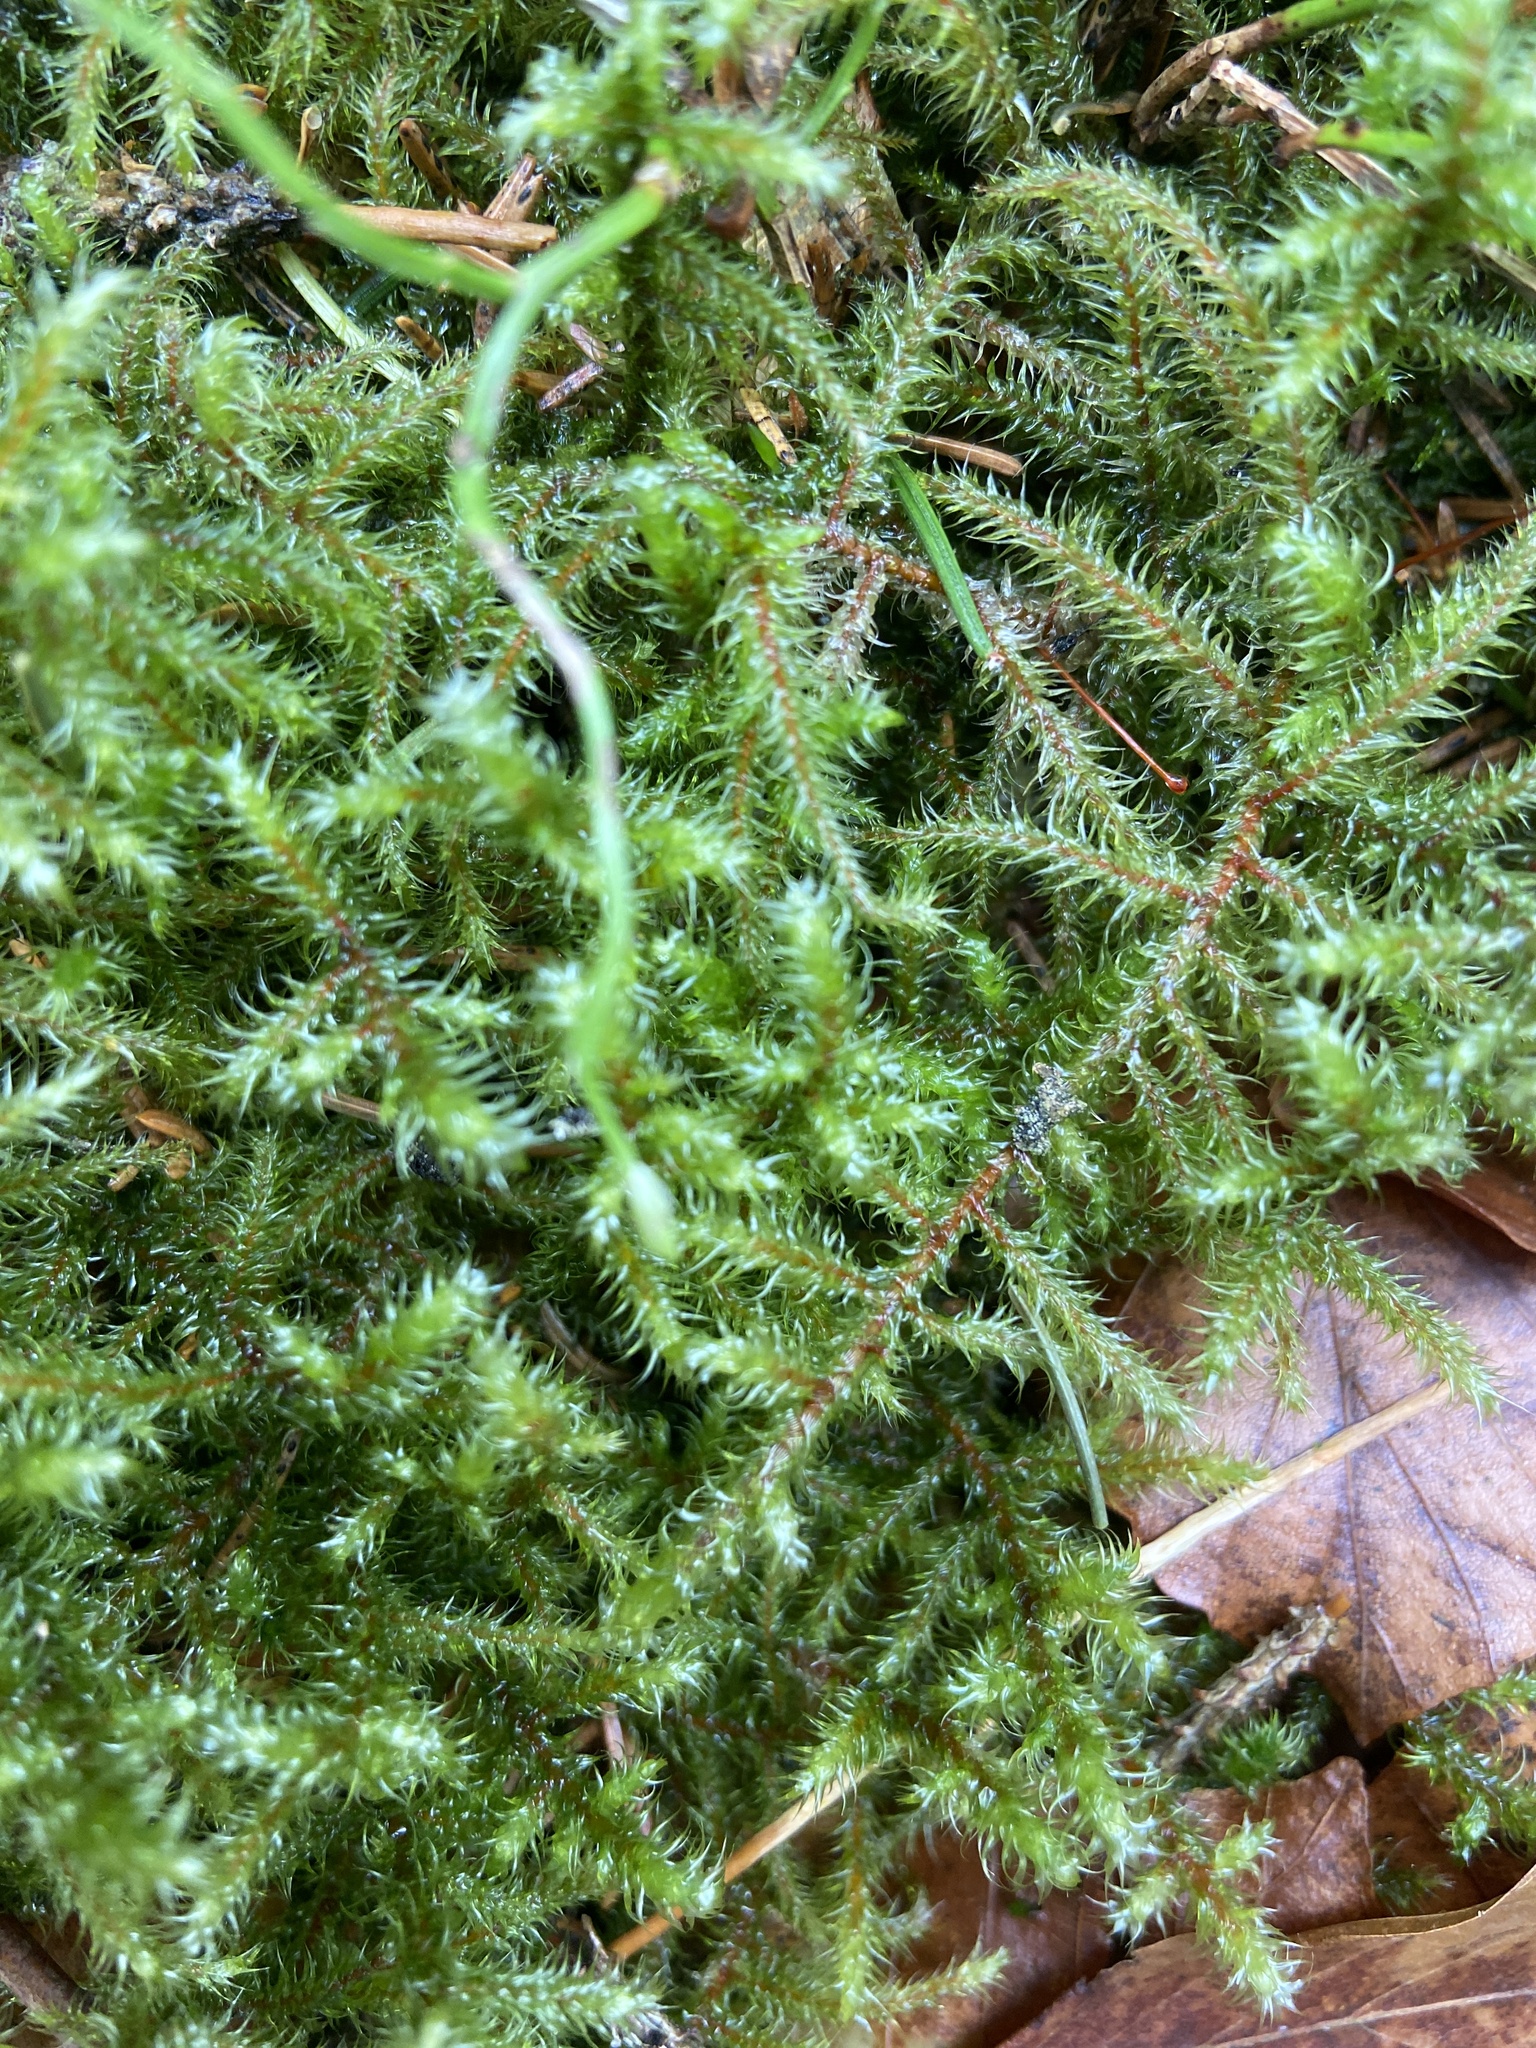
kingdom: Plantae
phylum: Bryophyta
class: Bryopsida
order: Hypnales
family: Hylocomiaceae
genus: Rhytidiadelphus
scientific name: Rhytidiadelphus loreus
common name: Lanky moss
